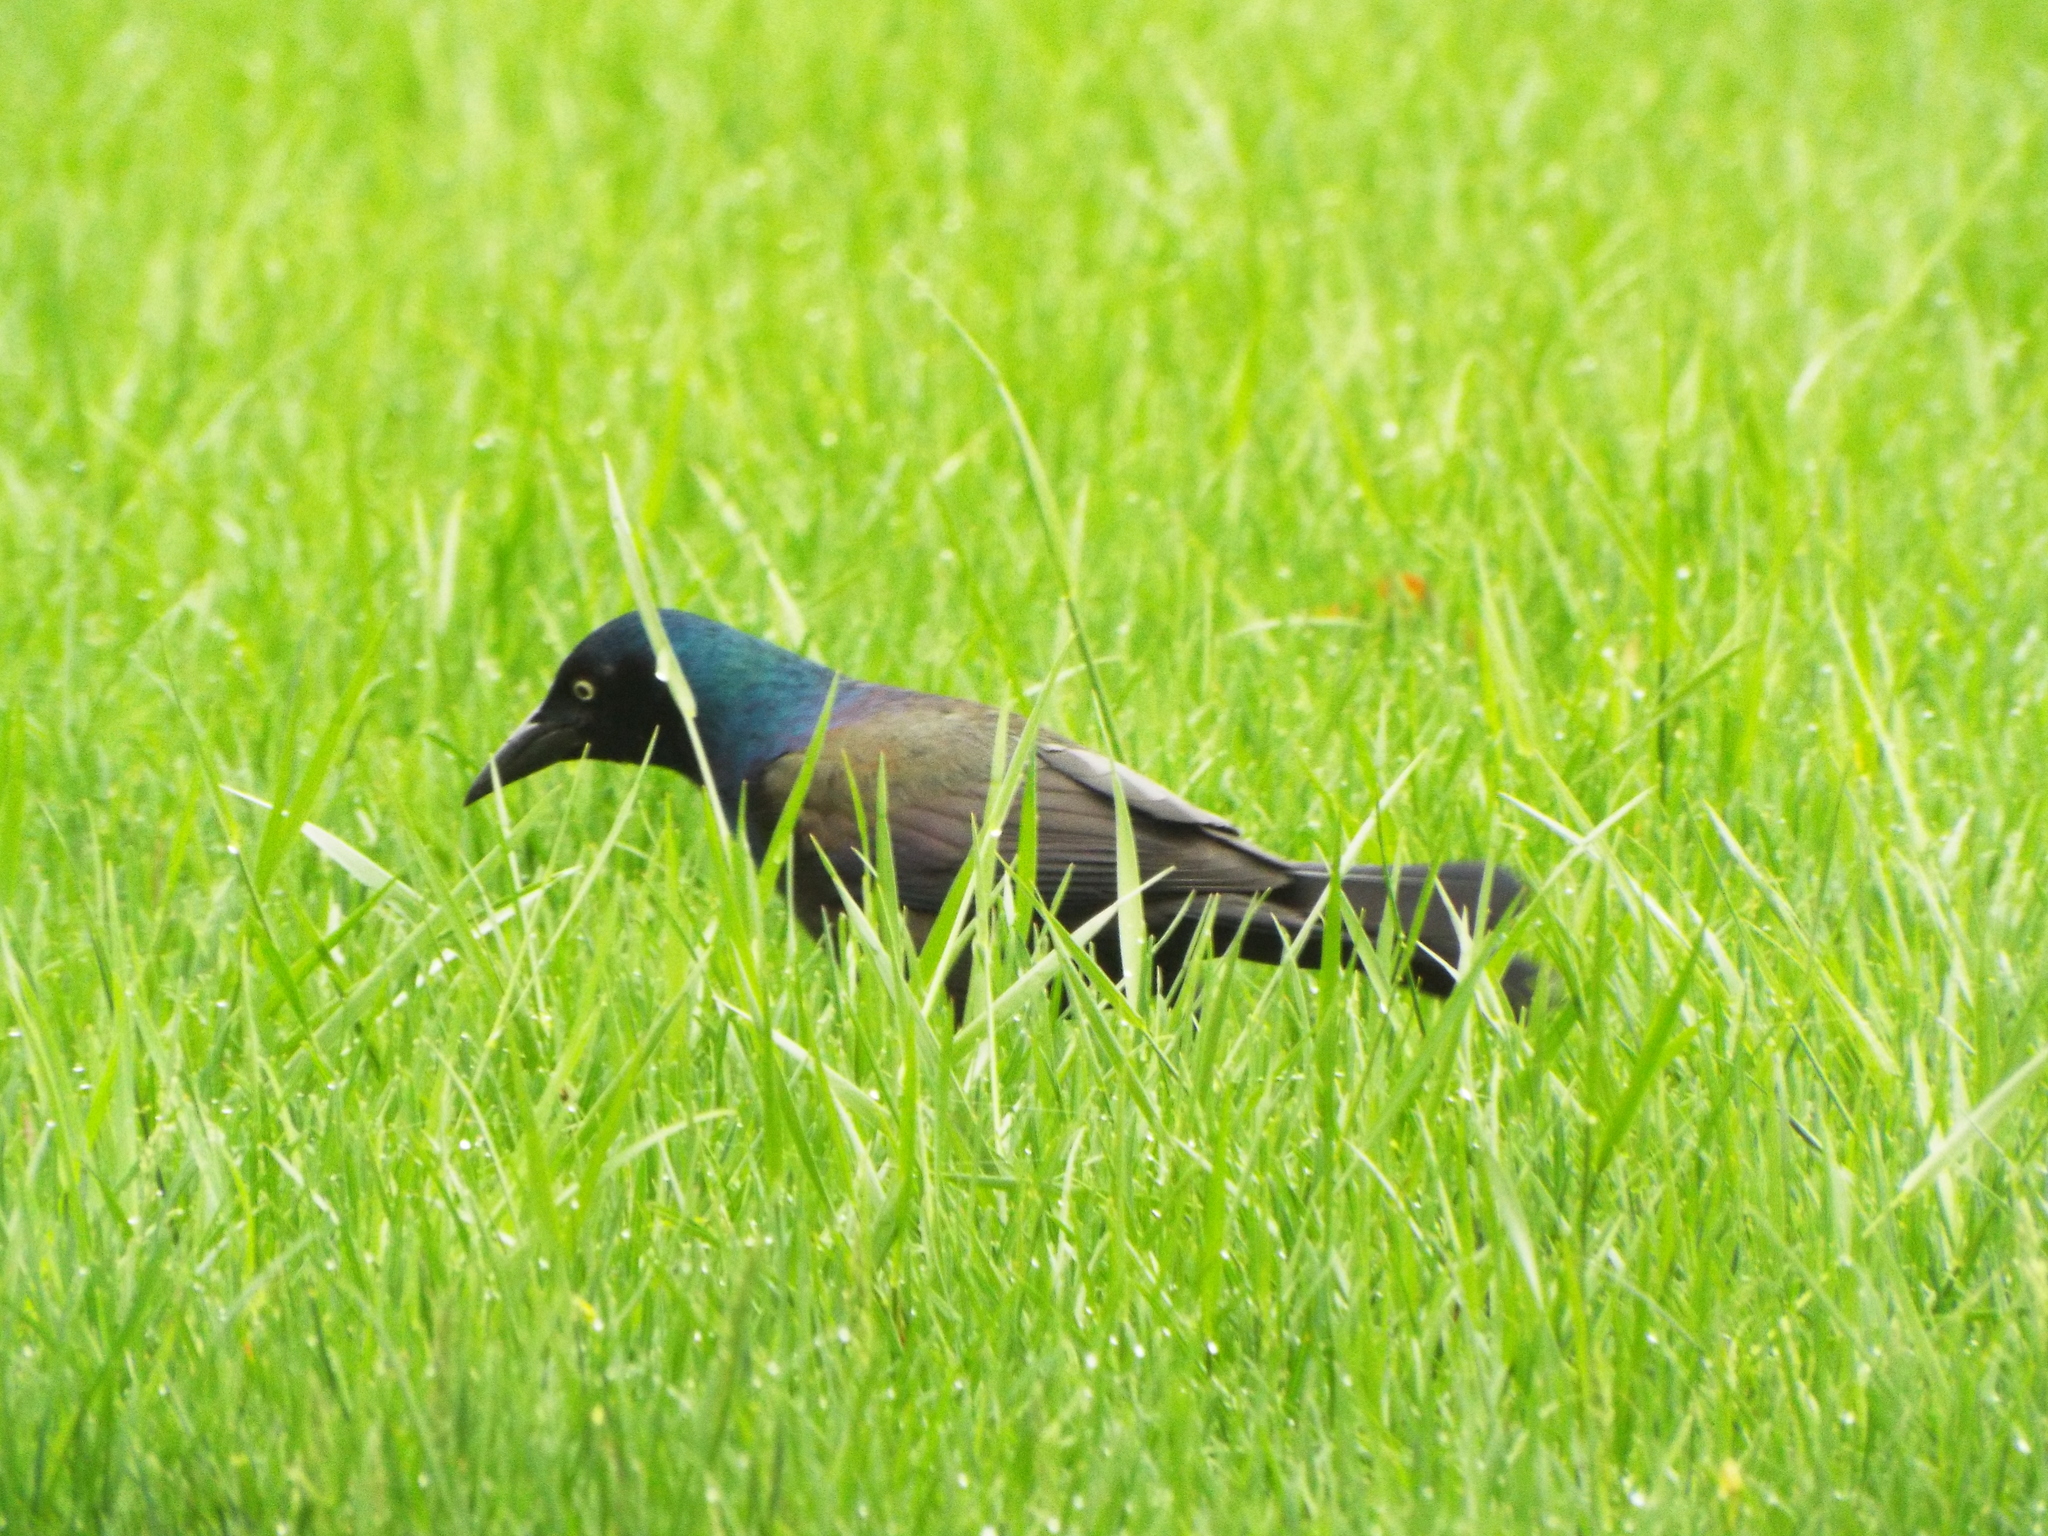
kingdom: Animalia
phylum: Chordata
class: Aves
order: Passeriformes
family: Icteridae
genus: Quiscalus
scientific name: Quiscalus quiscula
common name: Common grackle
